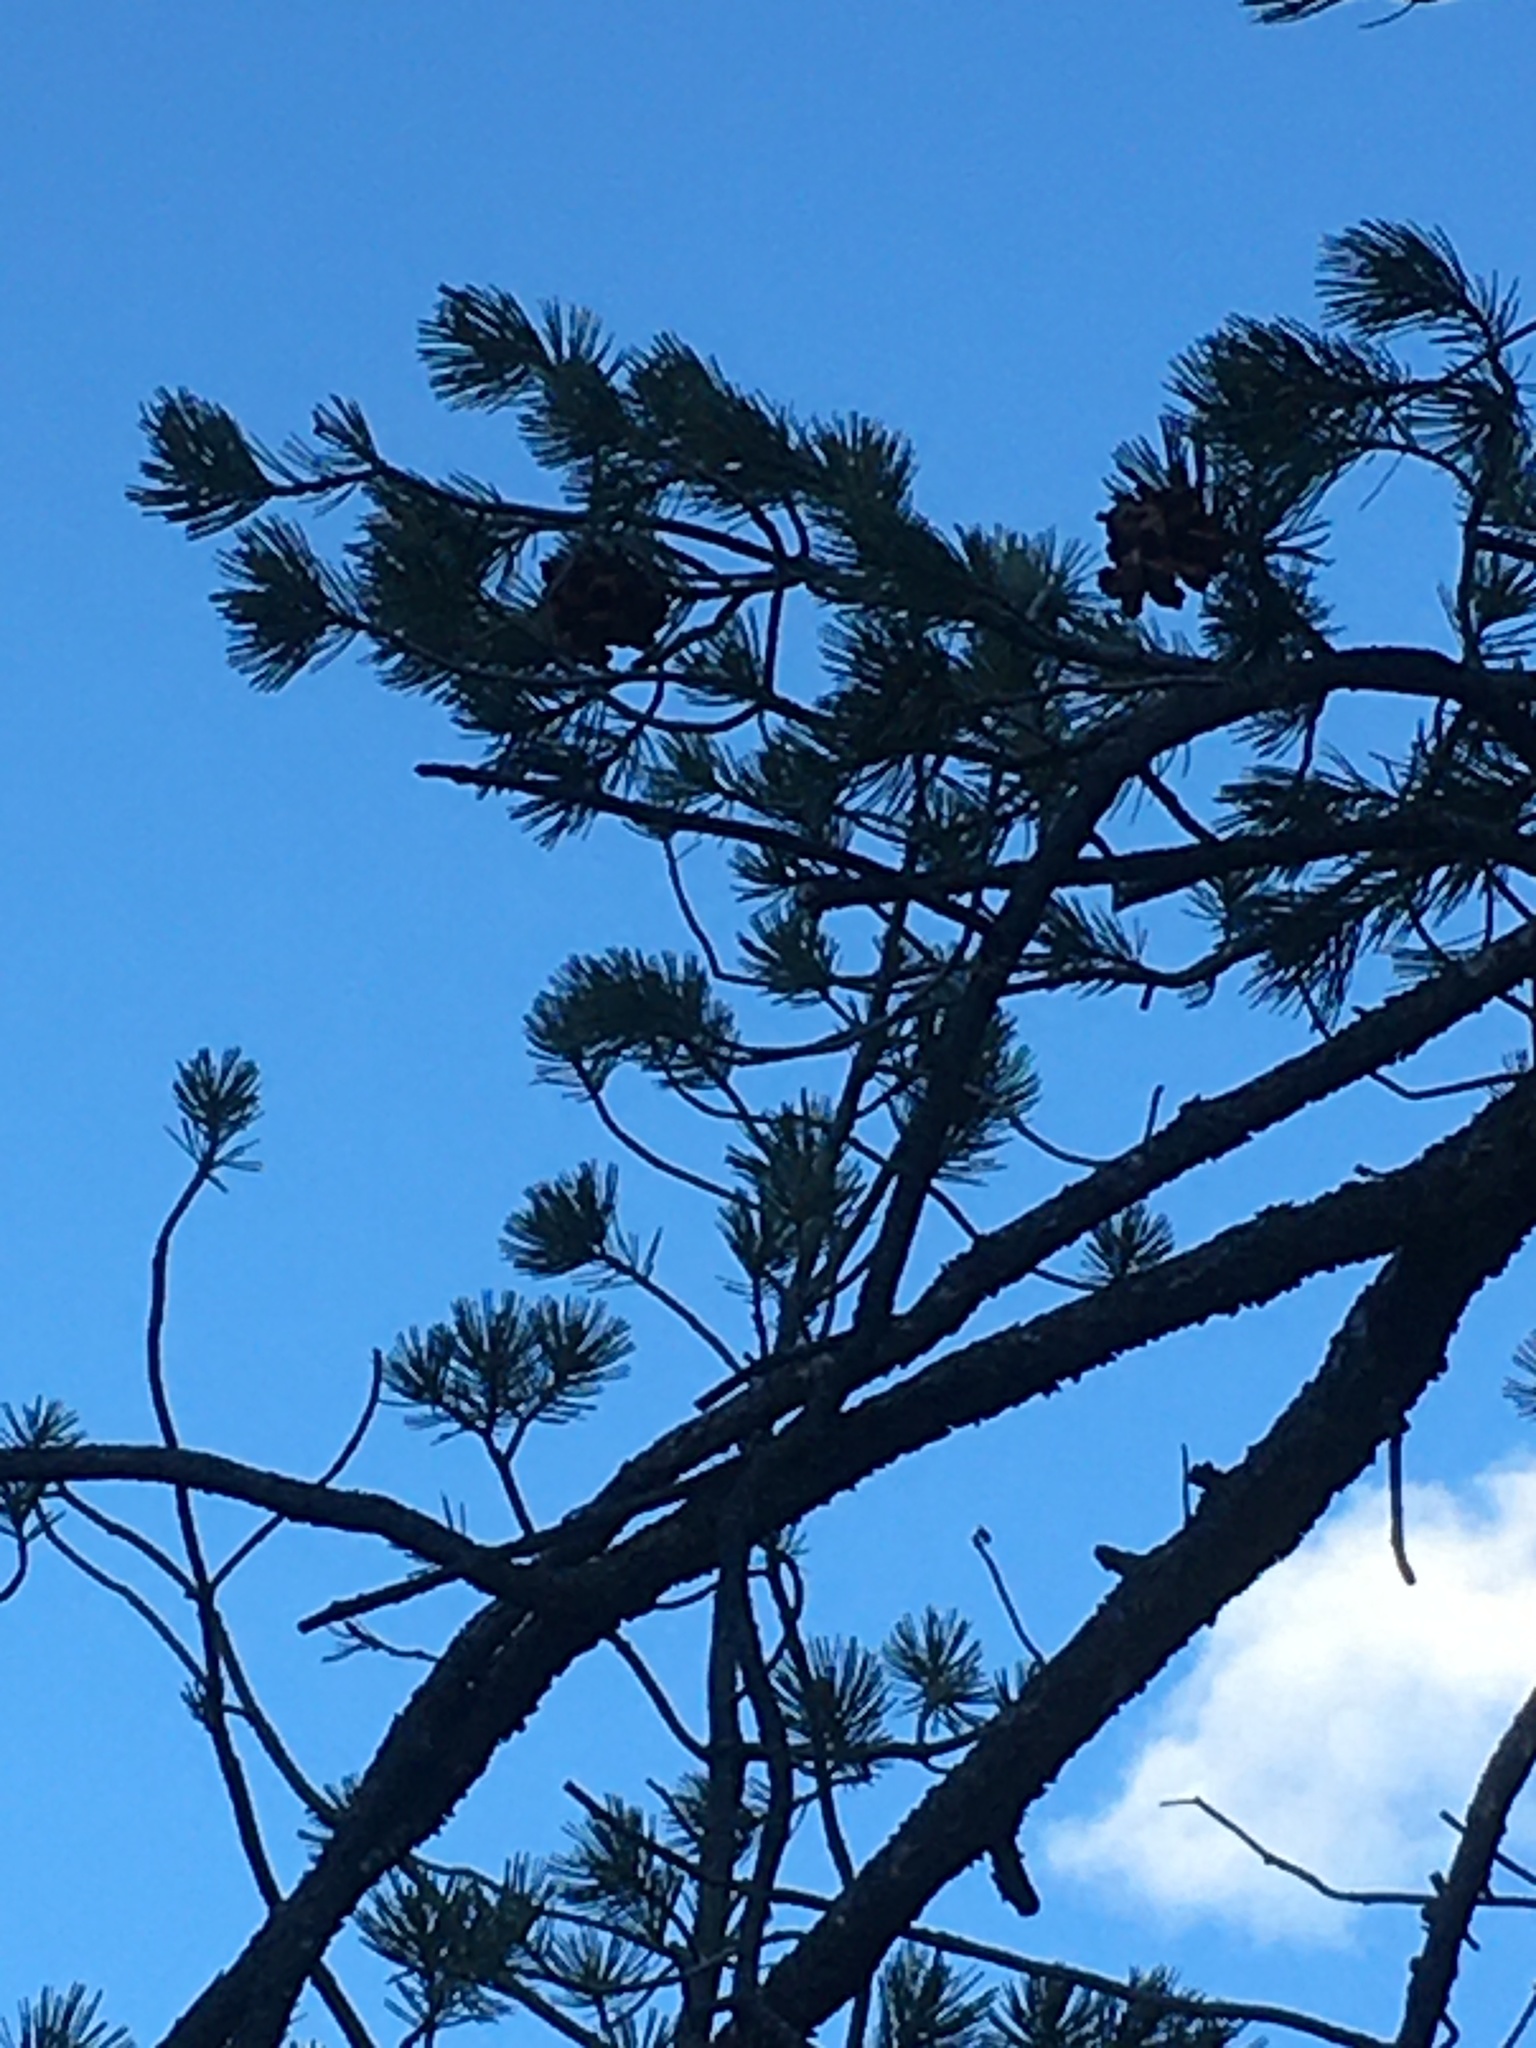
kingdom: Plantae
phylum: Tracheophyta
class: Pinopsida
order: Pinales
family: Pinaceae
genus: Pinus
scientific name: Pinus cembroides
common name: Mexican nut pine
